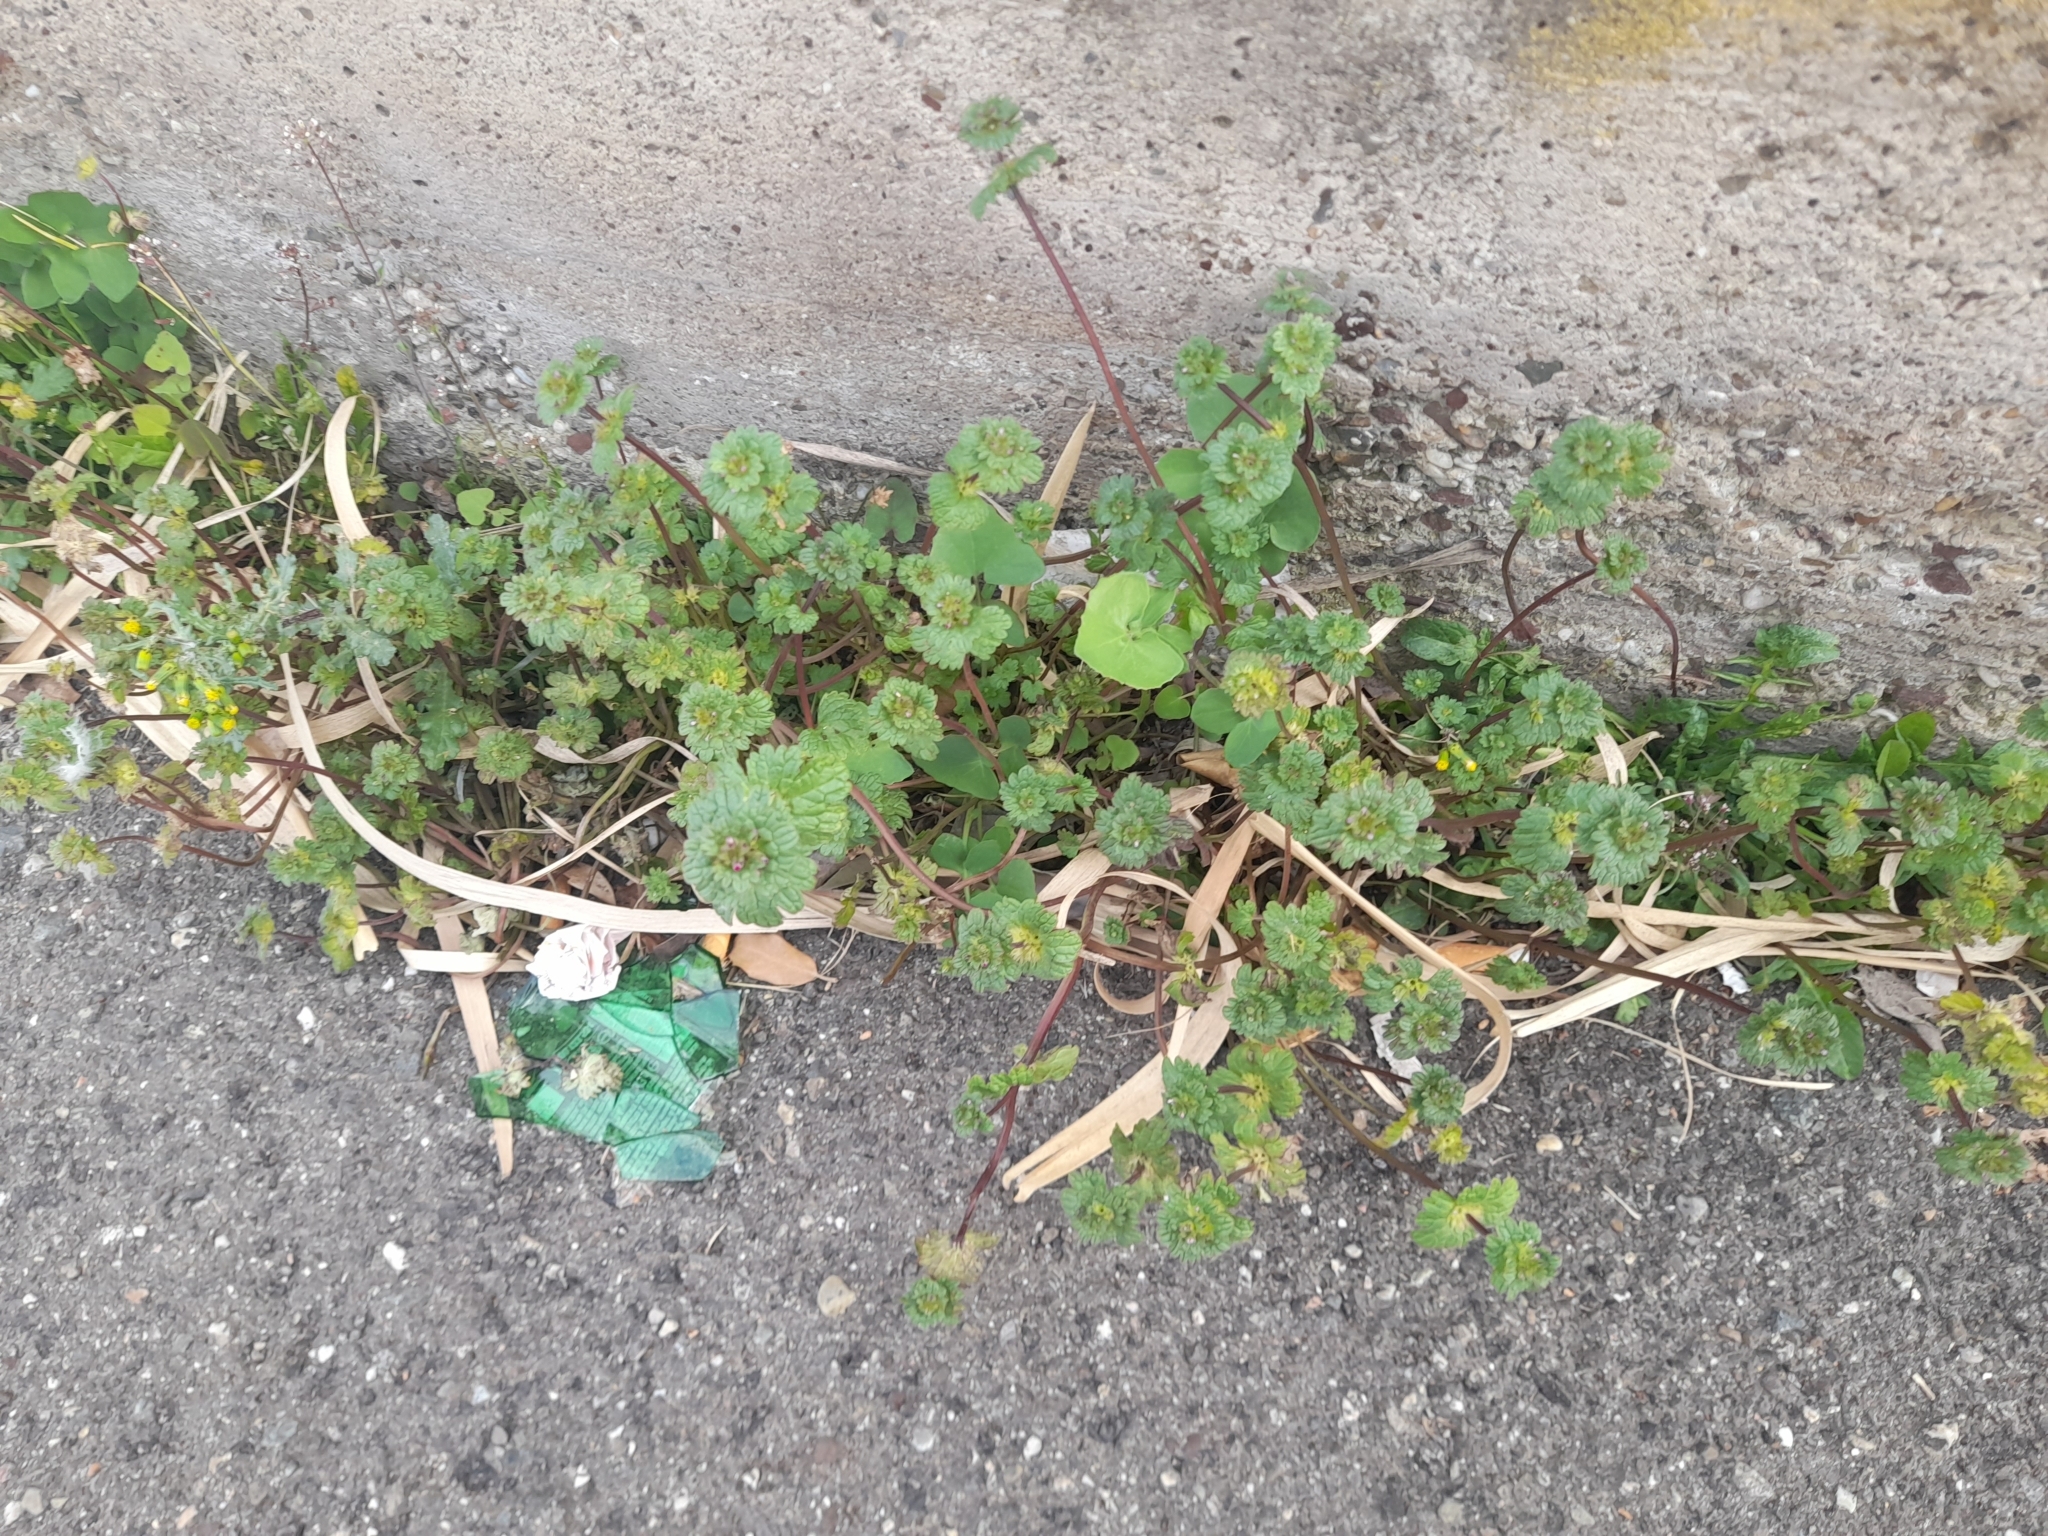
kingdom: Plantae
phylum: Tracheophyta
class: Magnoliopsida
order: Lamiales
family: Lamiaceae
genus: Lamium
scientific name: Lamium amplexicaule
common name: Henbit dead-nettle
